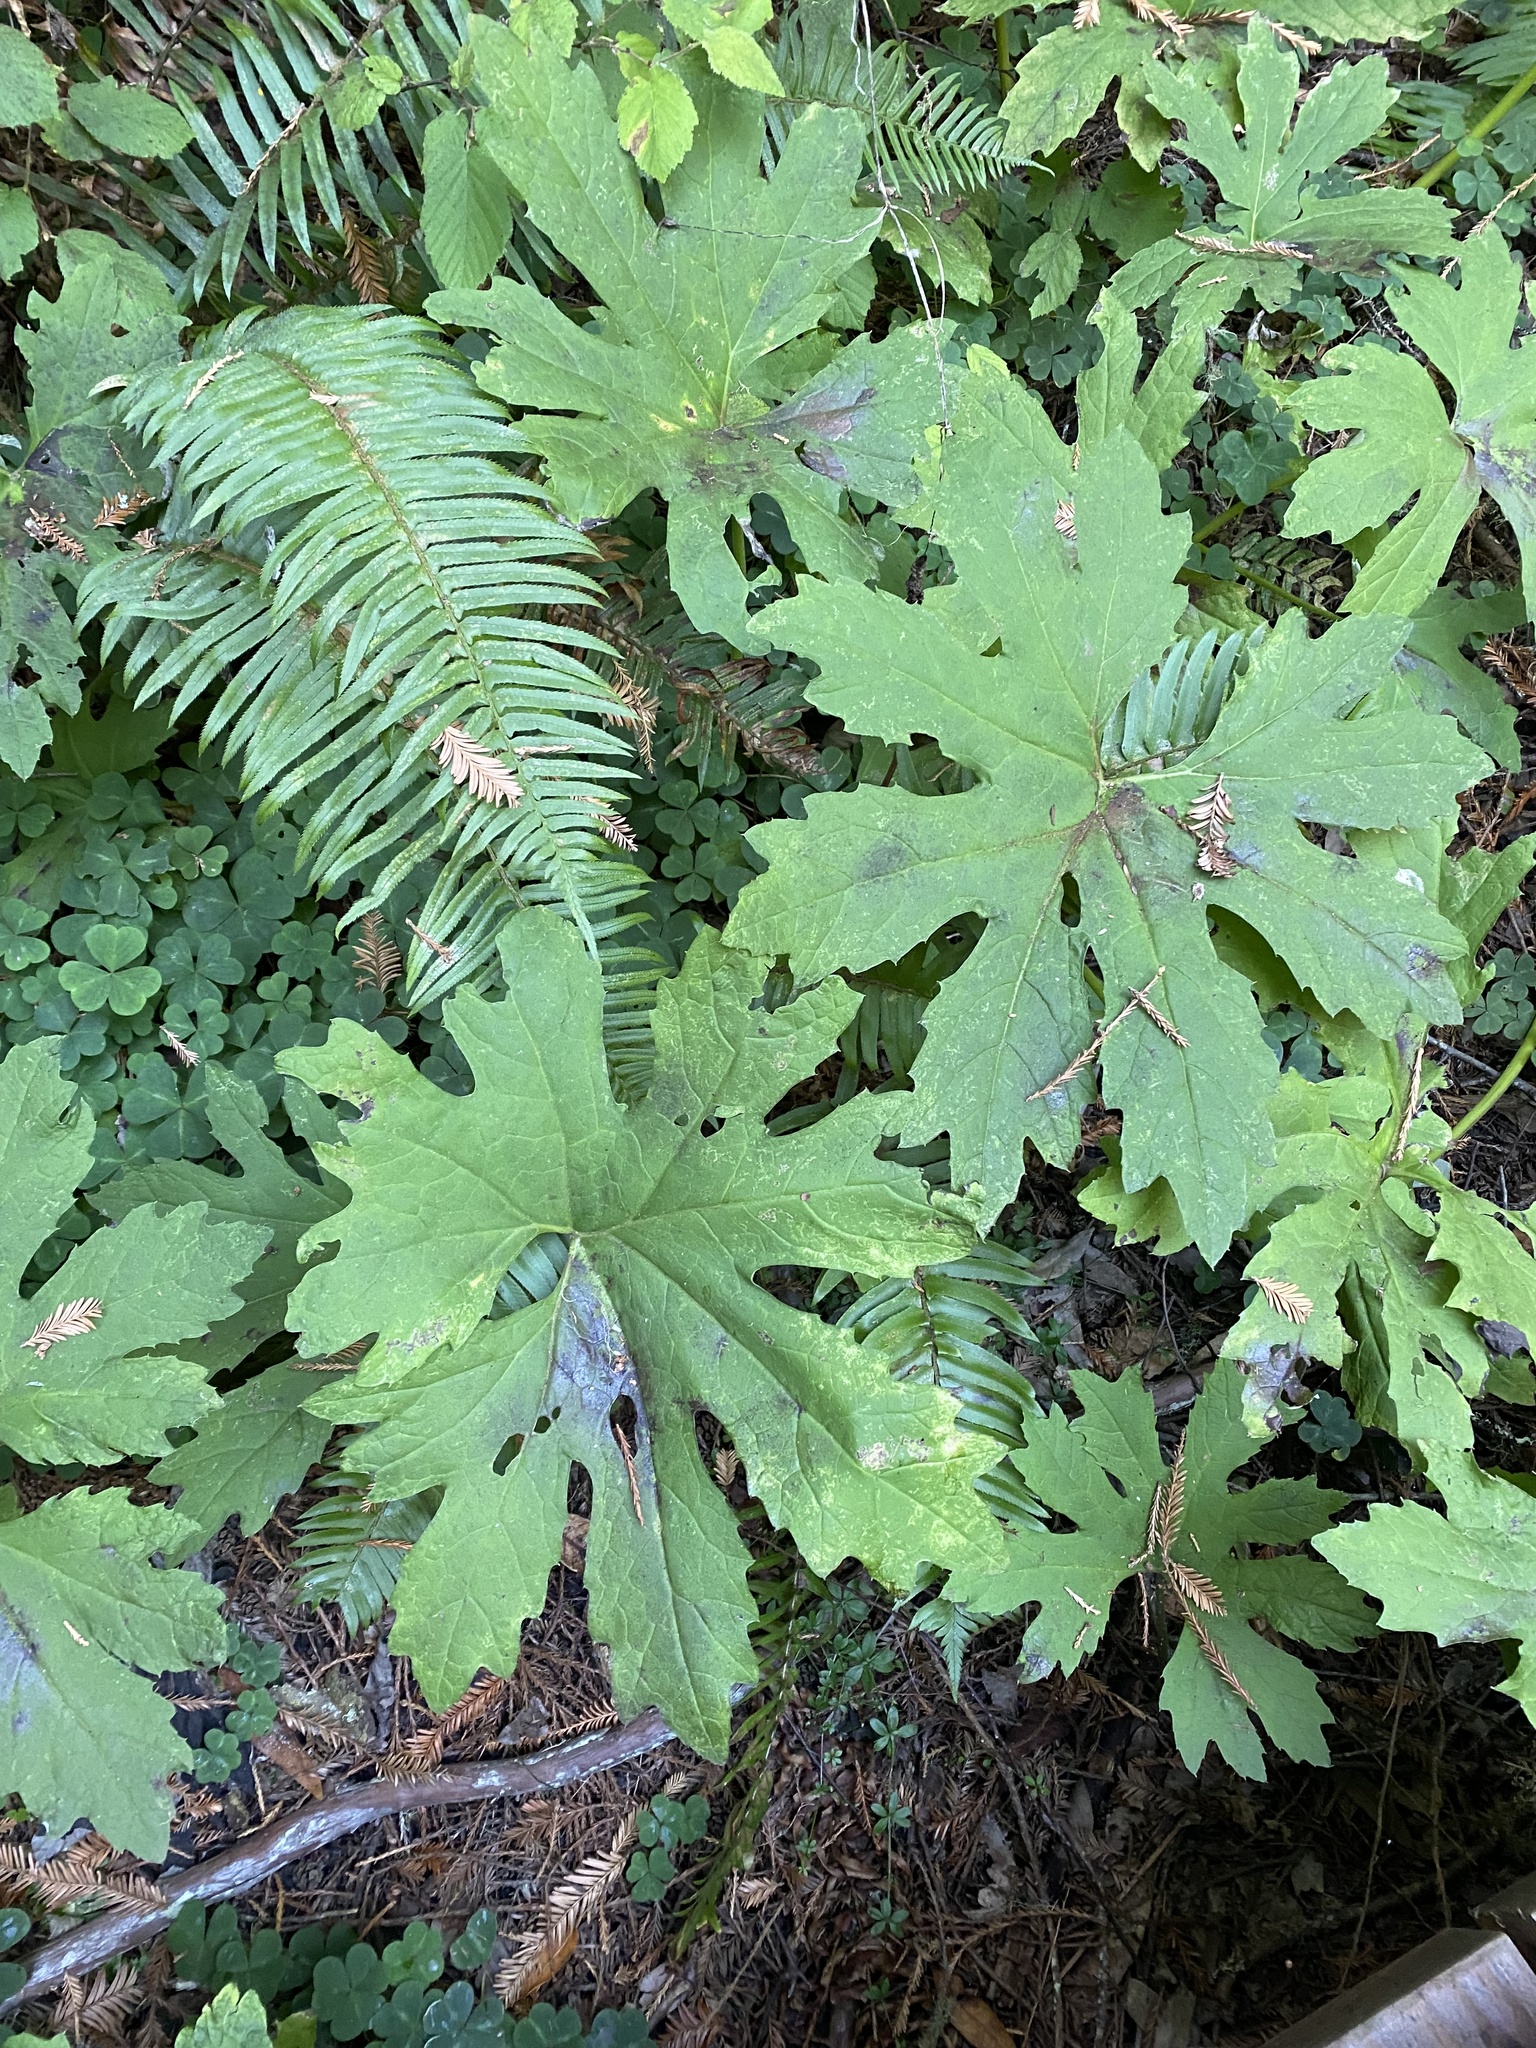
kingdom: Plantae
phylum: Tracheophyta
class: Magnoliopsida
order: Asterales
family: Asteraceae
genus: Petasites
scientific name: Petasites frigidus
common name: Arctic butterbur
